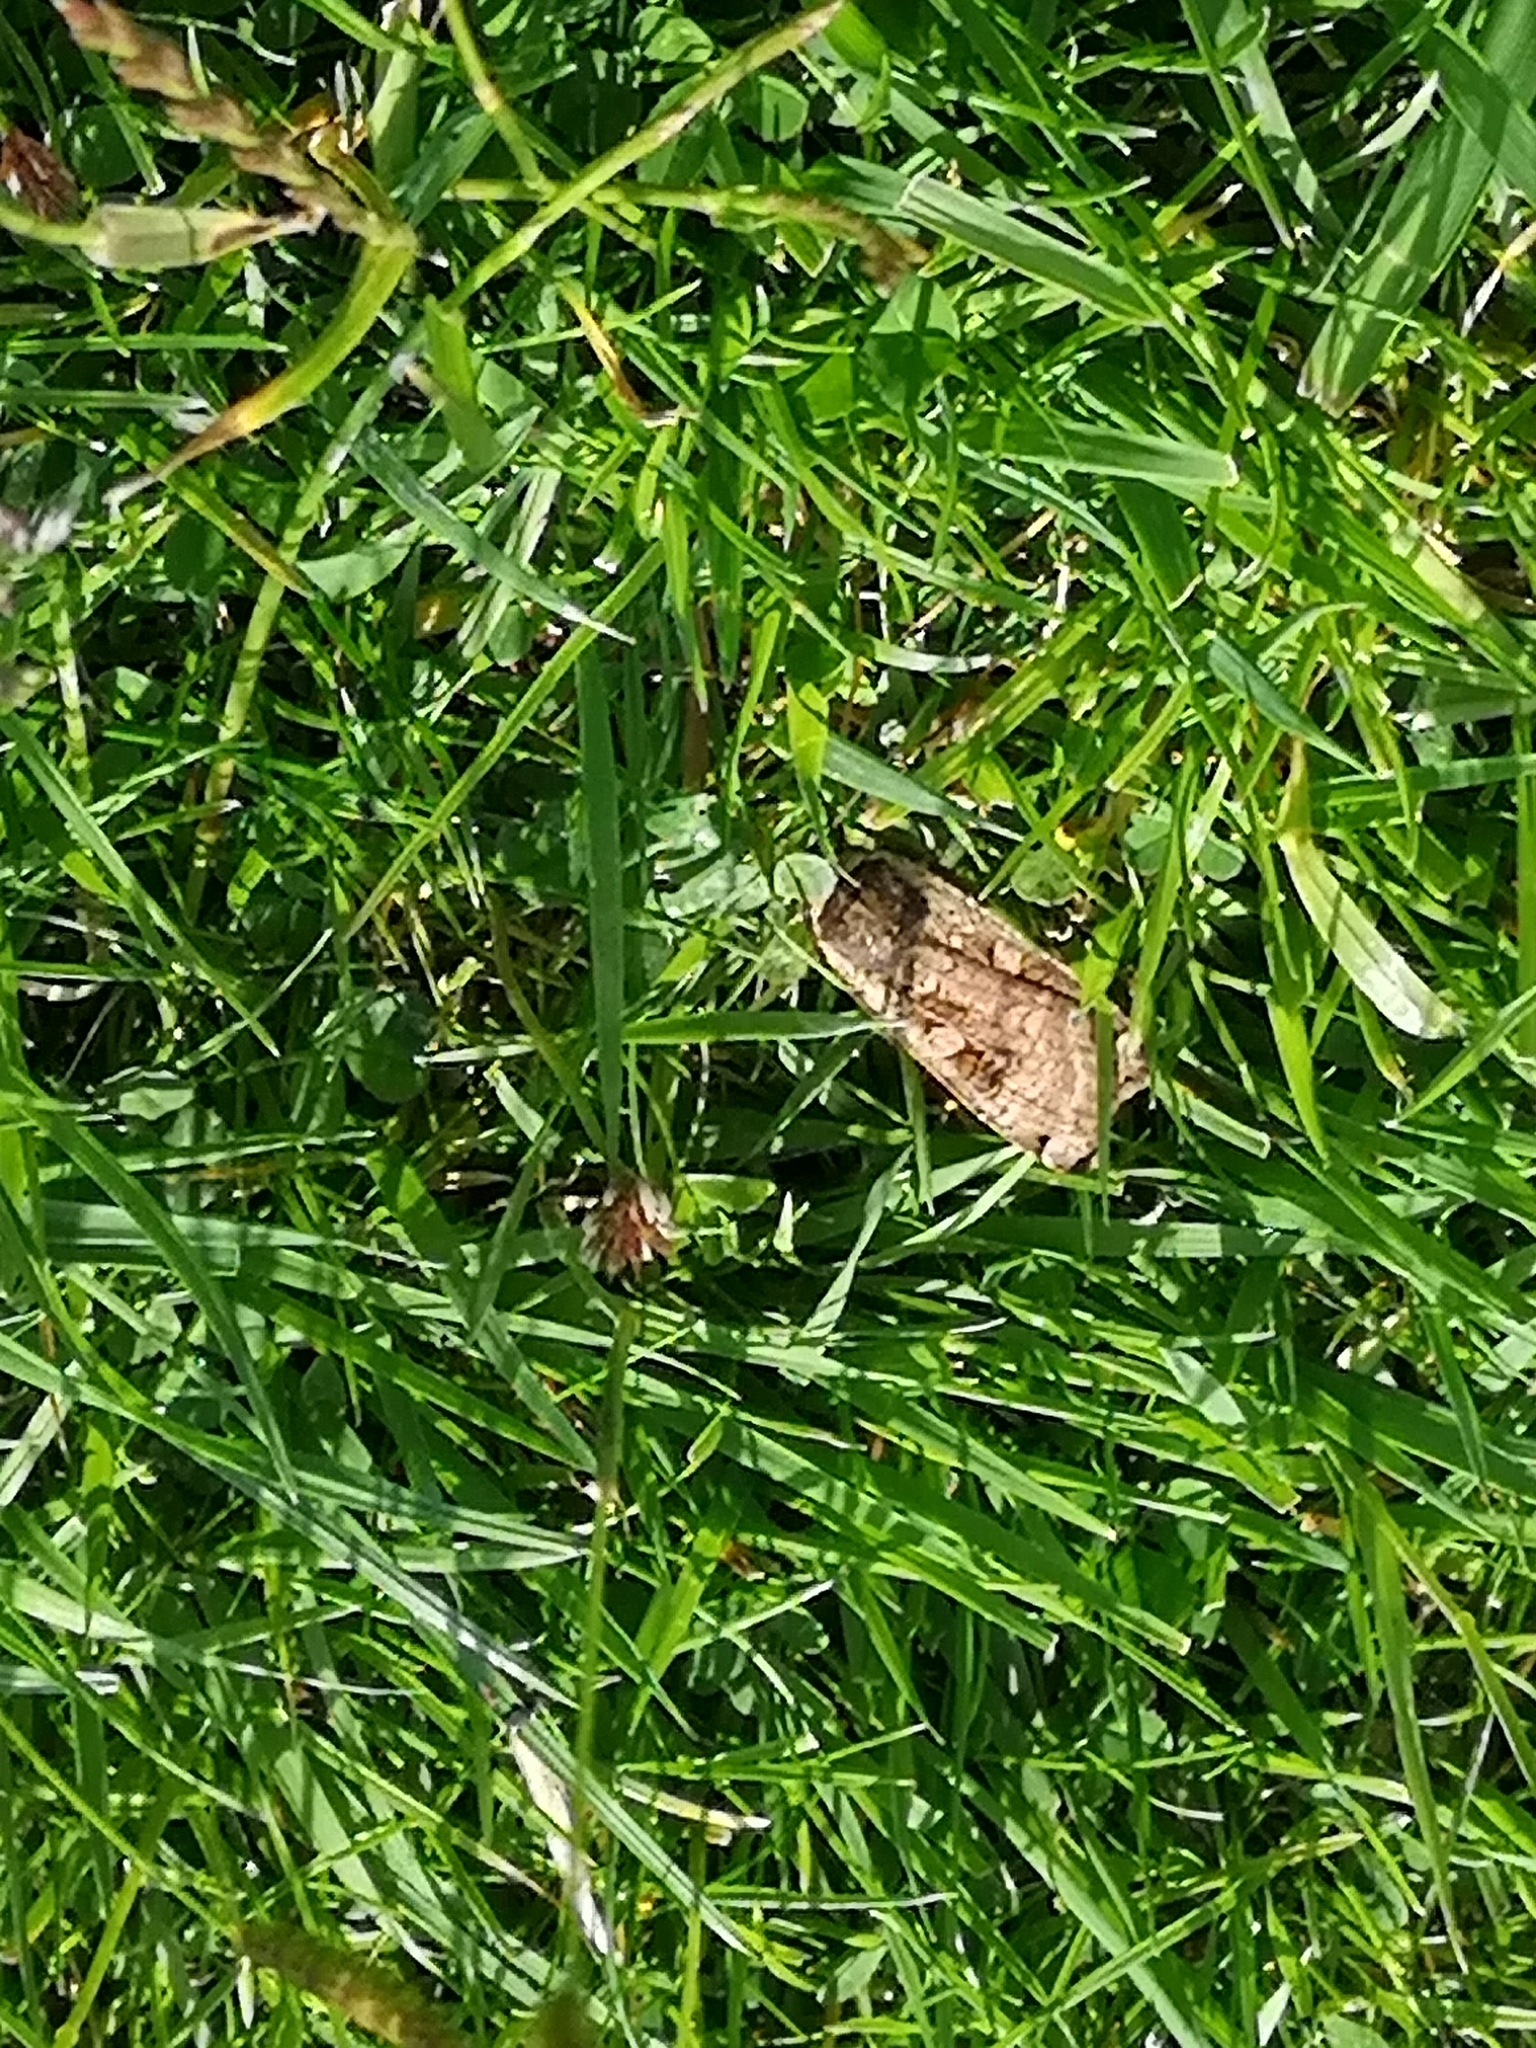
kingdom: Animalia
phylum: Arthropoda
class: Insecta
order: Lepidoptera
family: Noctuidae
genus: Noctua
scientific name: Noctua pronuba
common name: Large yellow underwing
